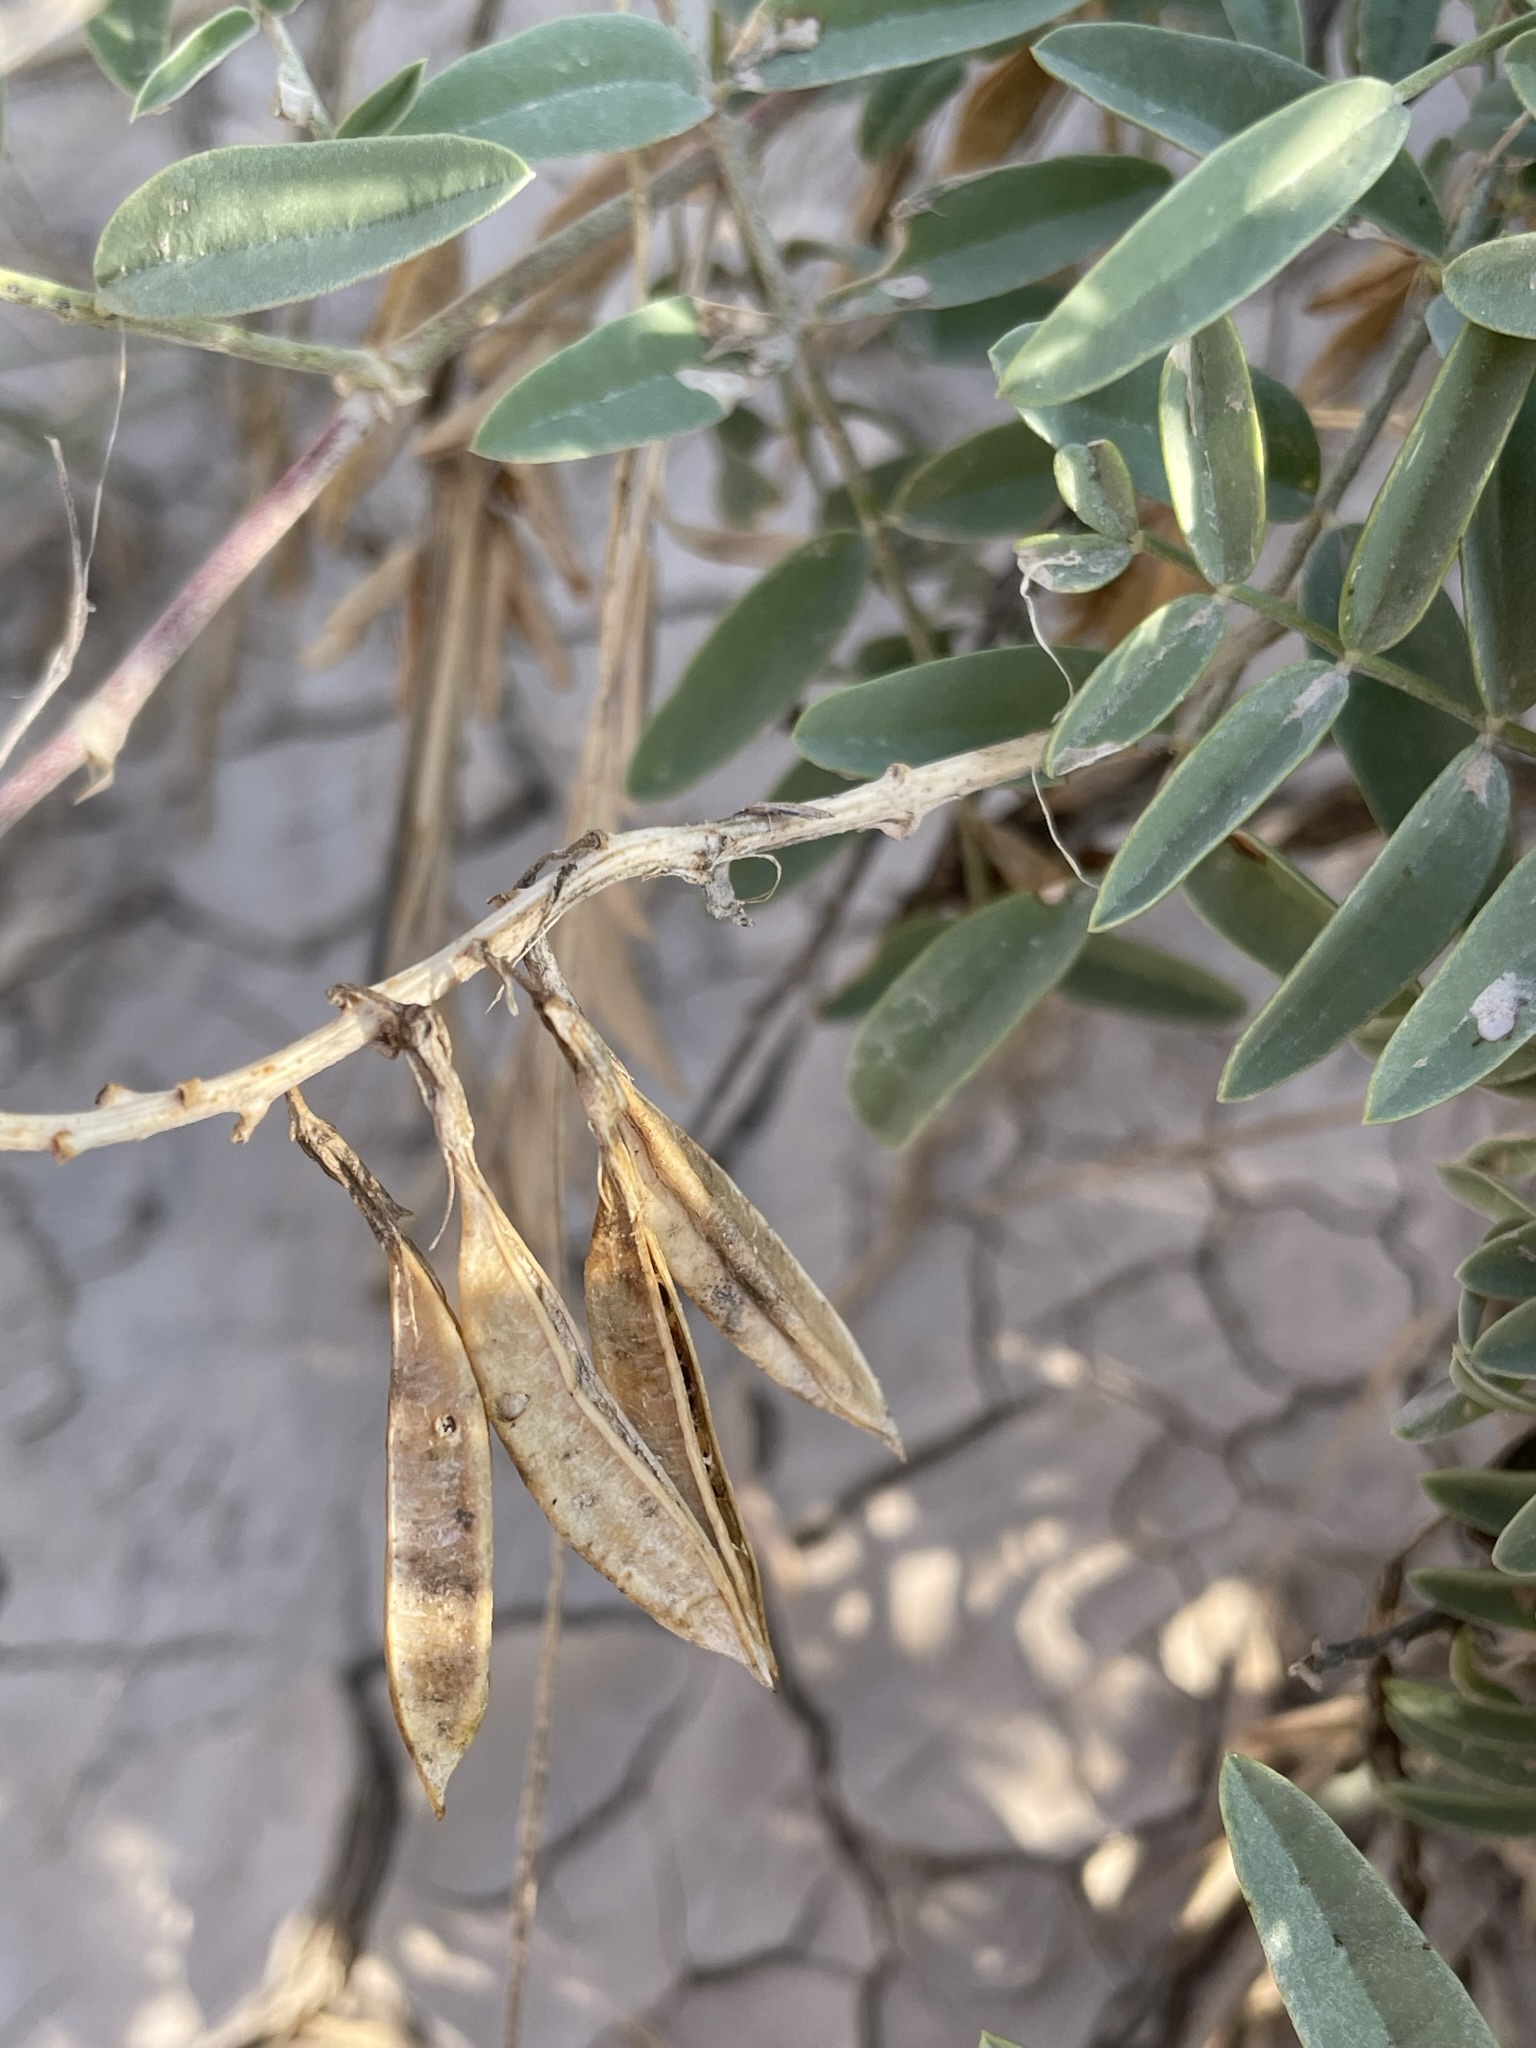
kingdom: Plantae
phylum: Tracheophyta
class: Magnoliopsida
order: Fabales
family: Fabaceae
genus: Astragalus
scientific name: Astragalus racemosus
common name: Alkali milk-vetch
